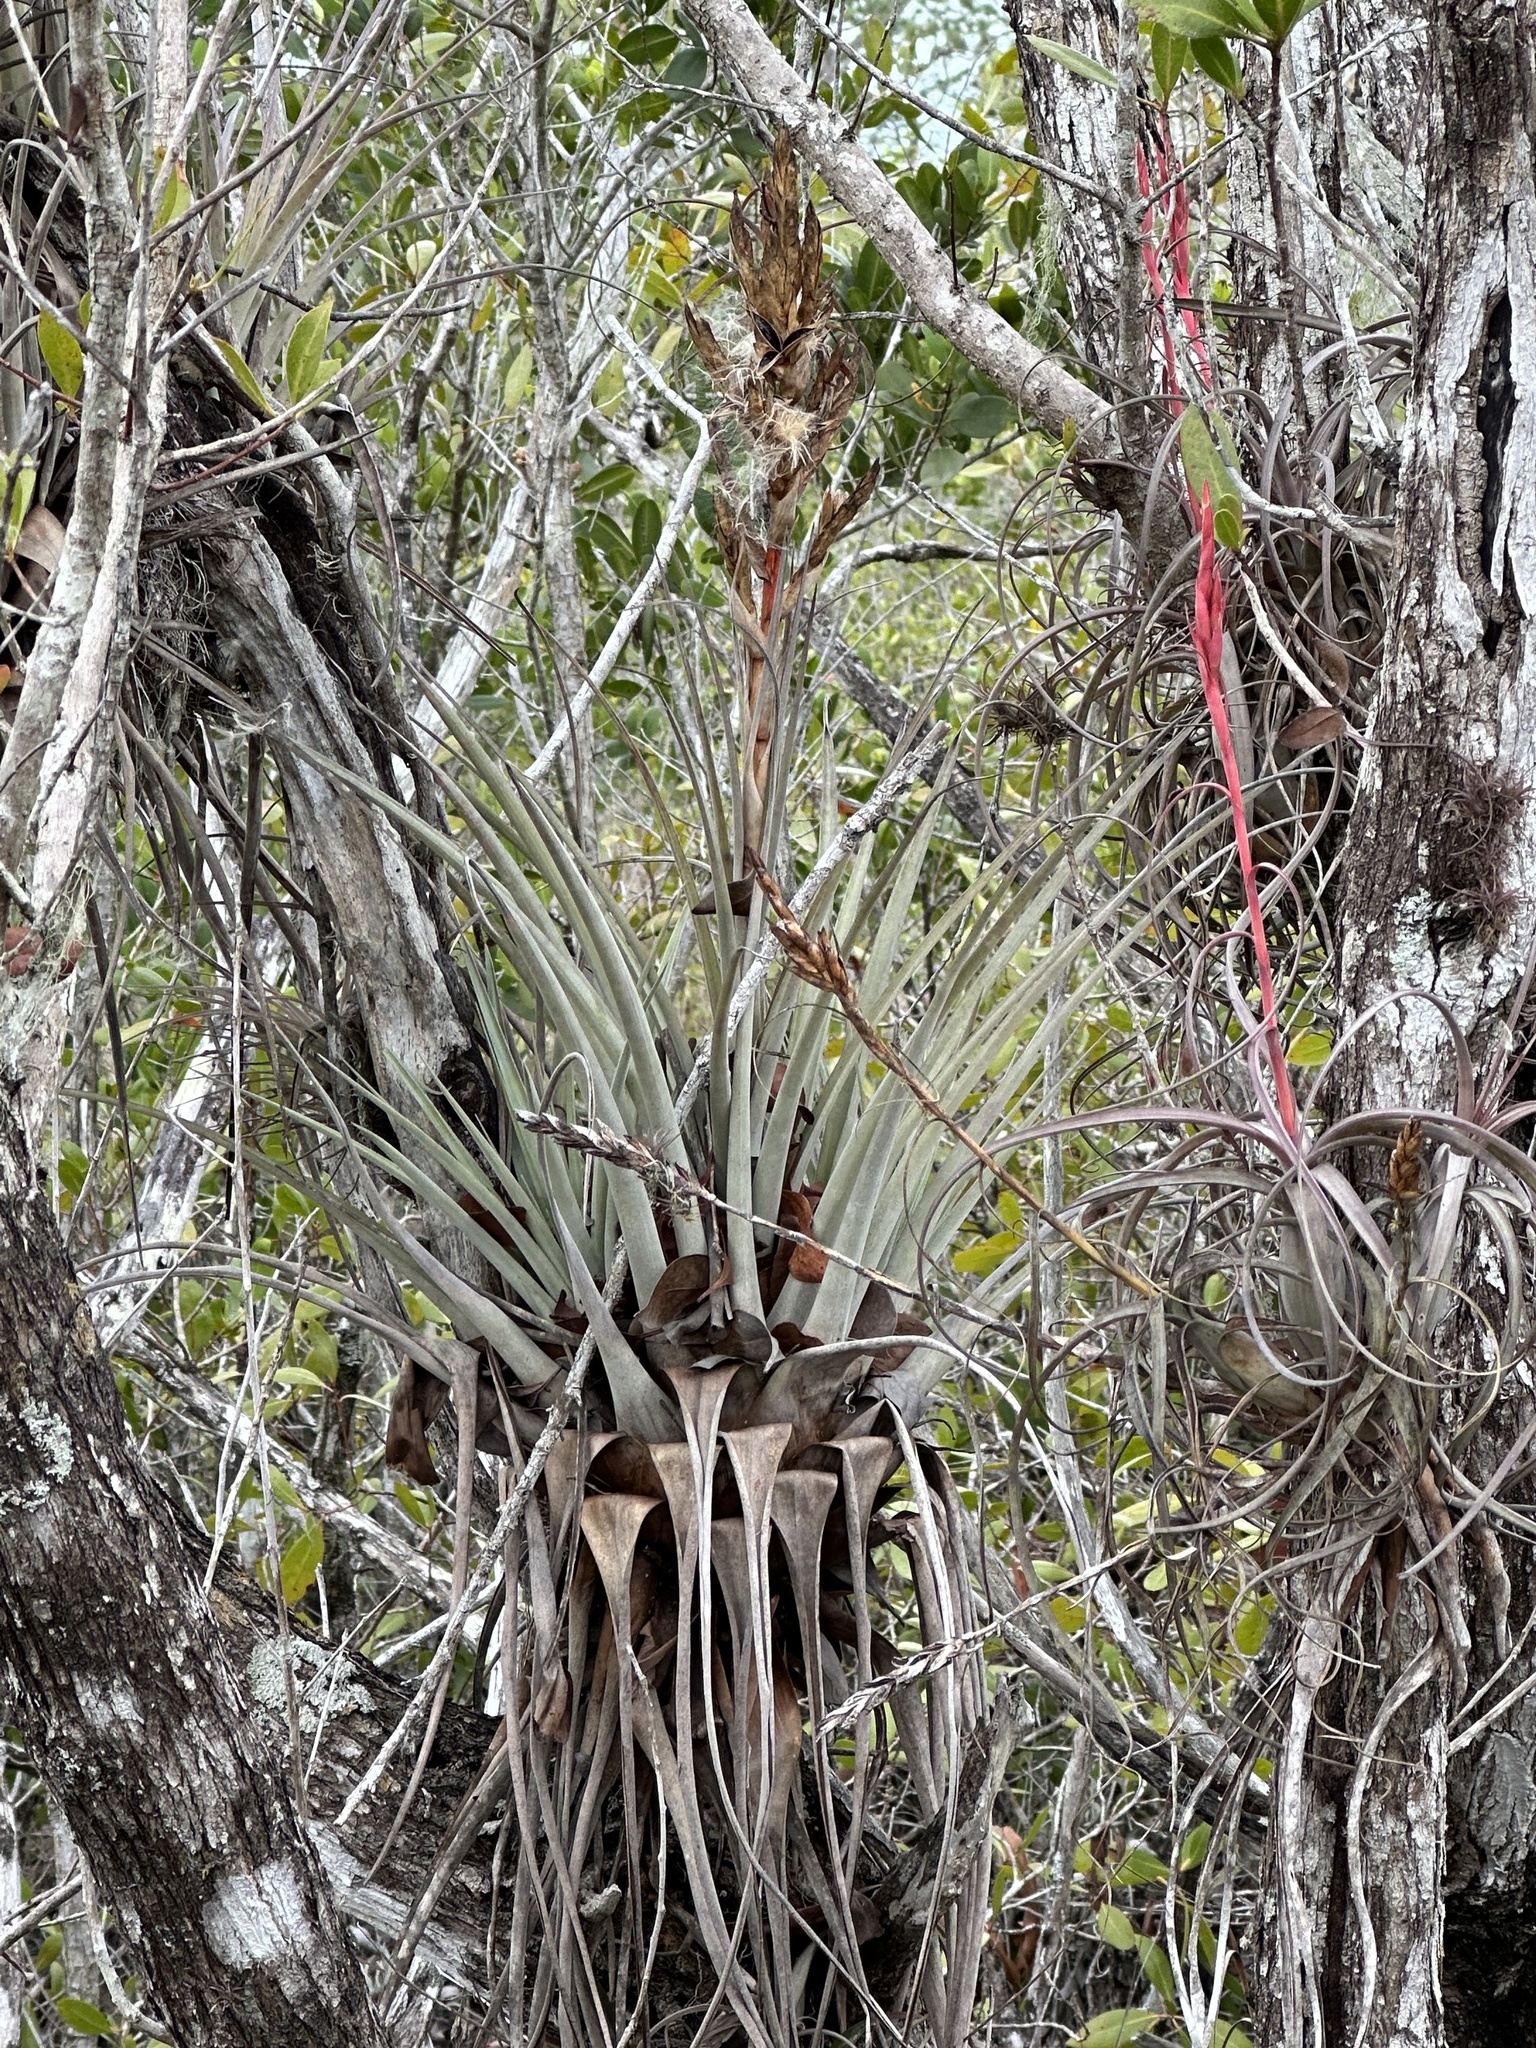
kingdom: Plantae
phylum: Tracheophyta
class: Liliopsida
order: Poales
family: Bromeliaceae
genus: Tillandsia
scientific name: Tillandsia fasciculata
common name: Giant airplant
